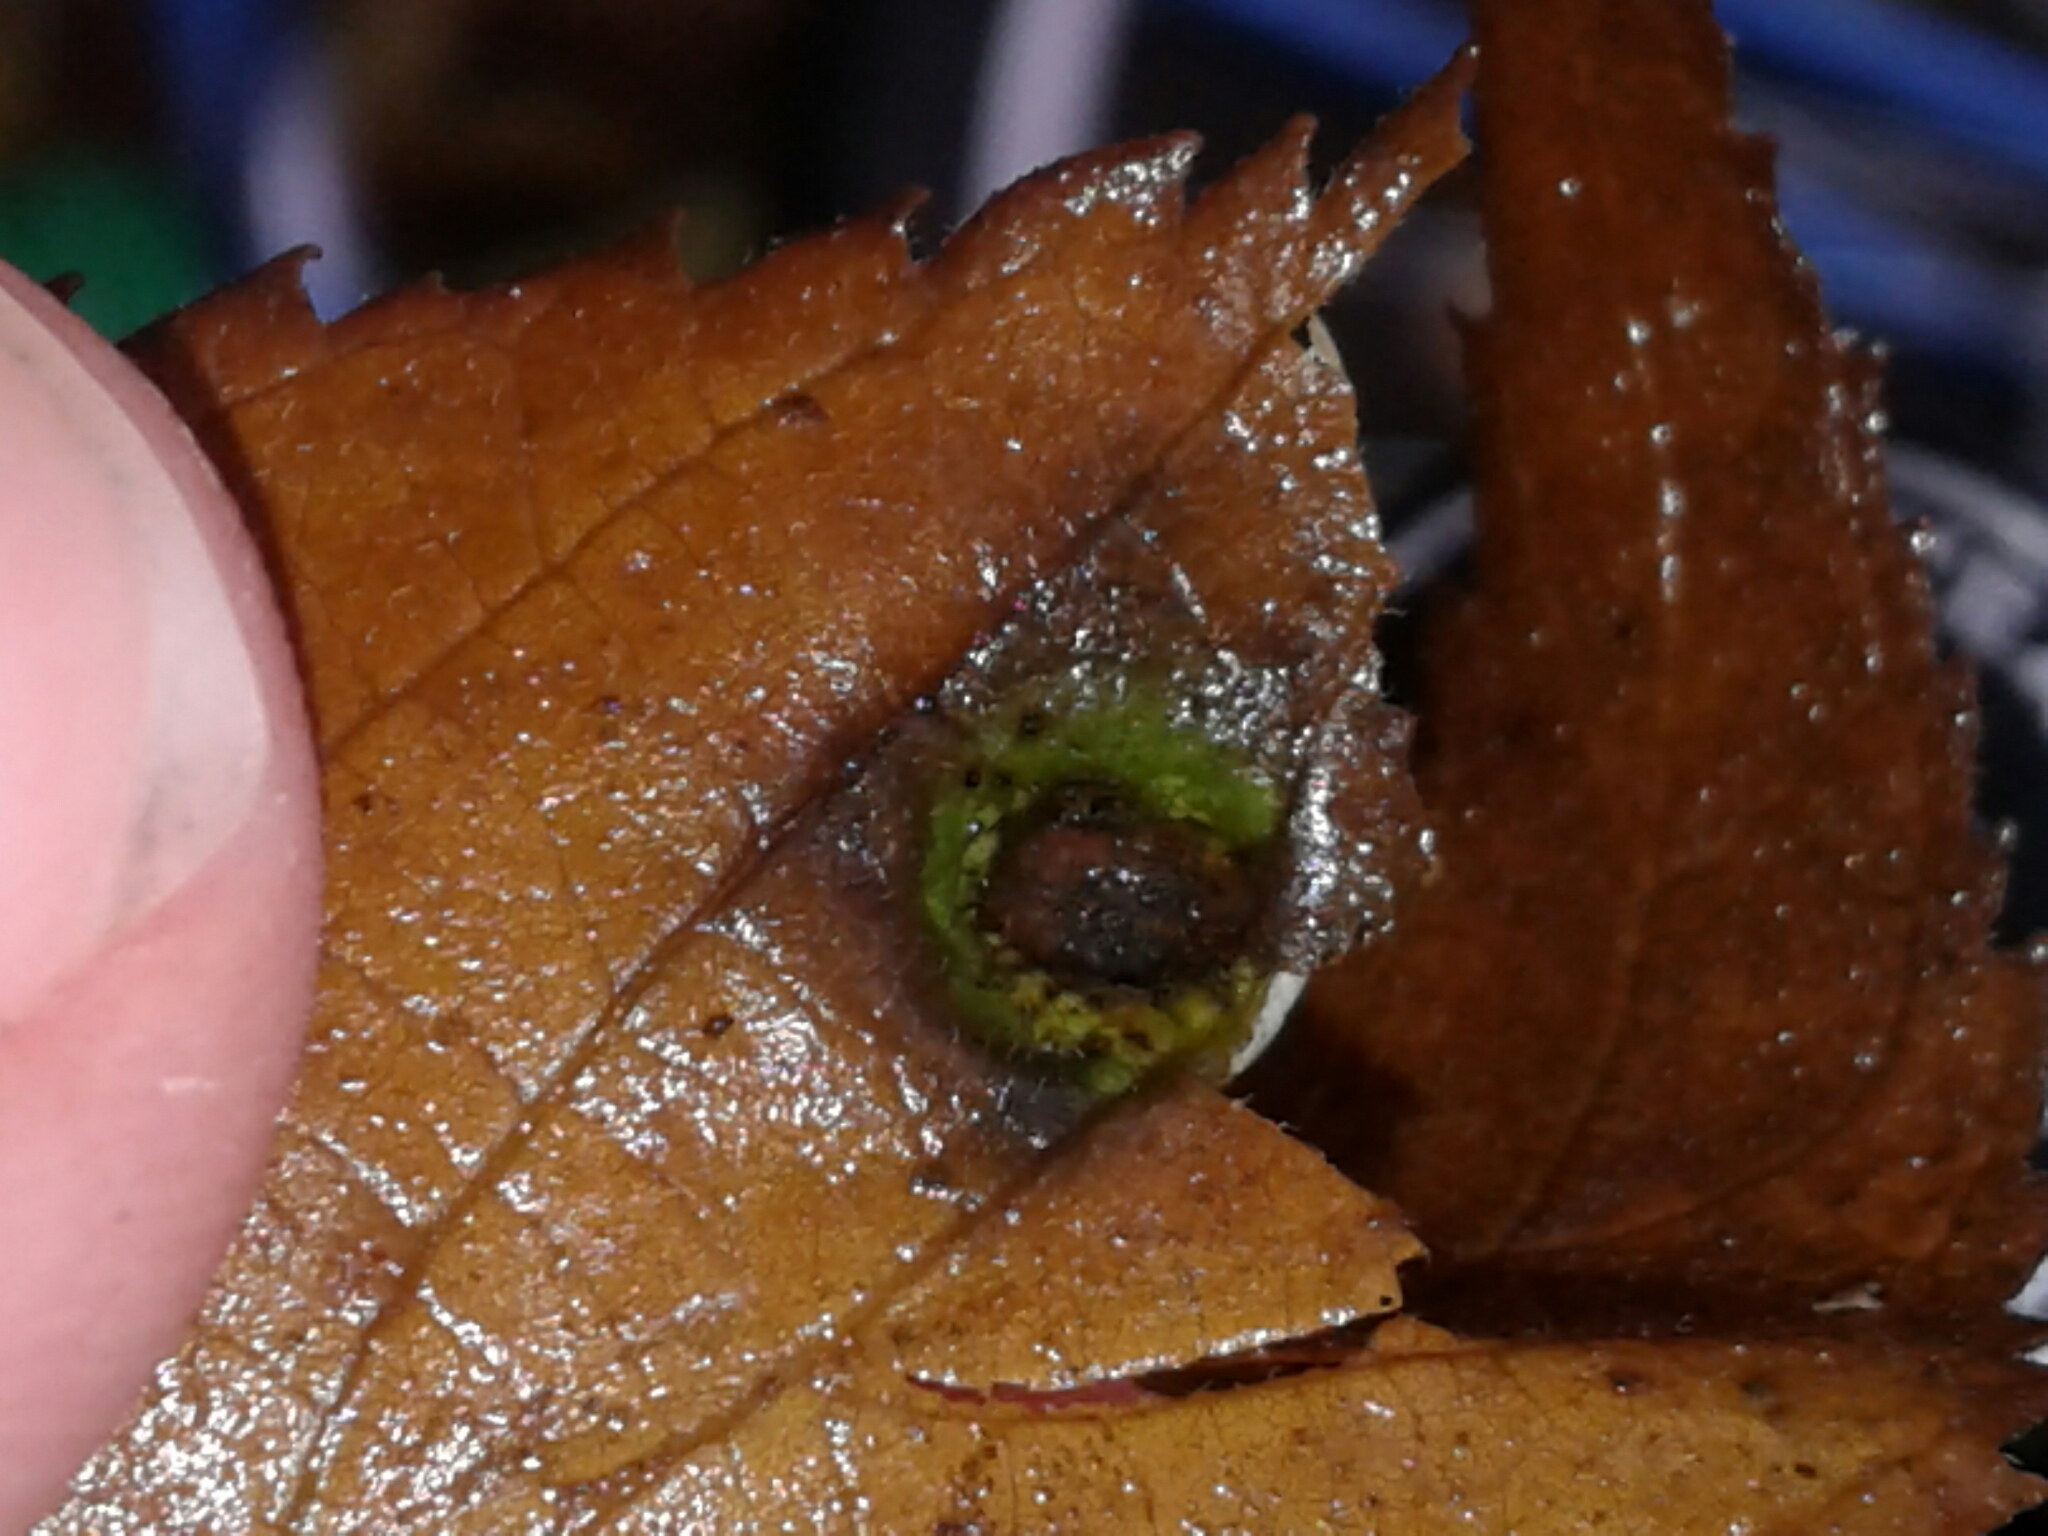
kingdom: Animalia
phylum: Arthropoda
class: Insecta
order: Hemiptera
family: Aphalaridae
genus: Pachypsylla
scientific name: Pachypsylla celtidismamma
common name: Hackberry nipplegall psyllid
